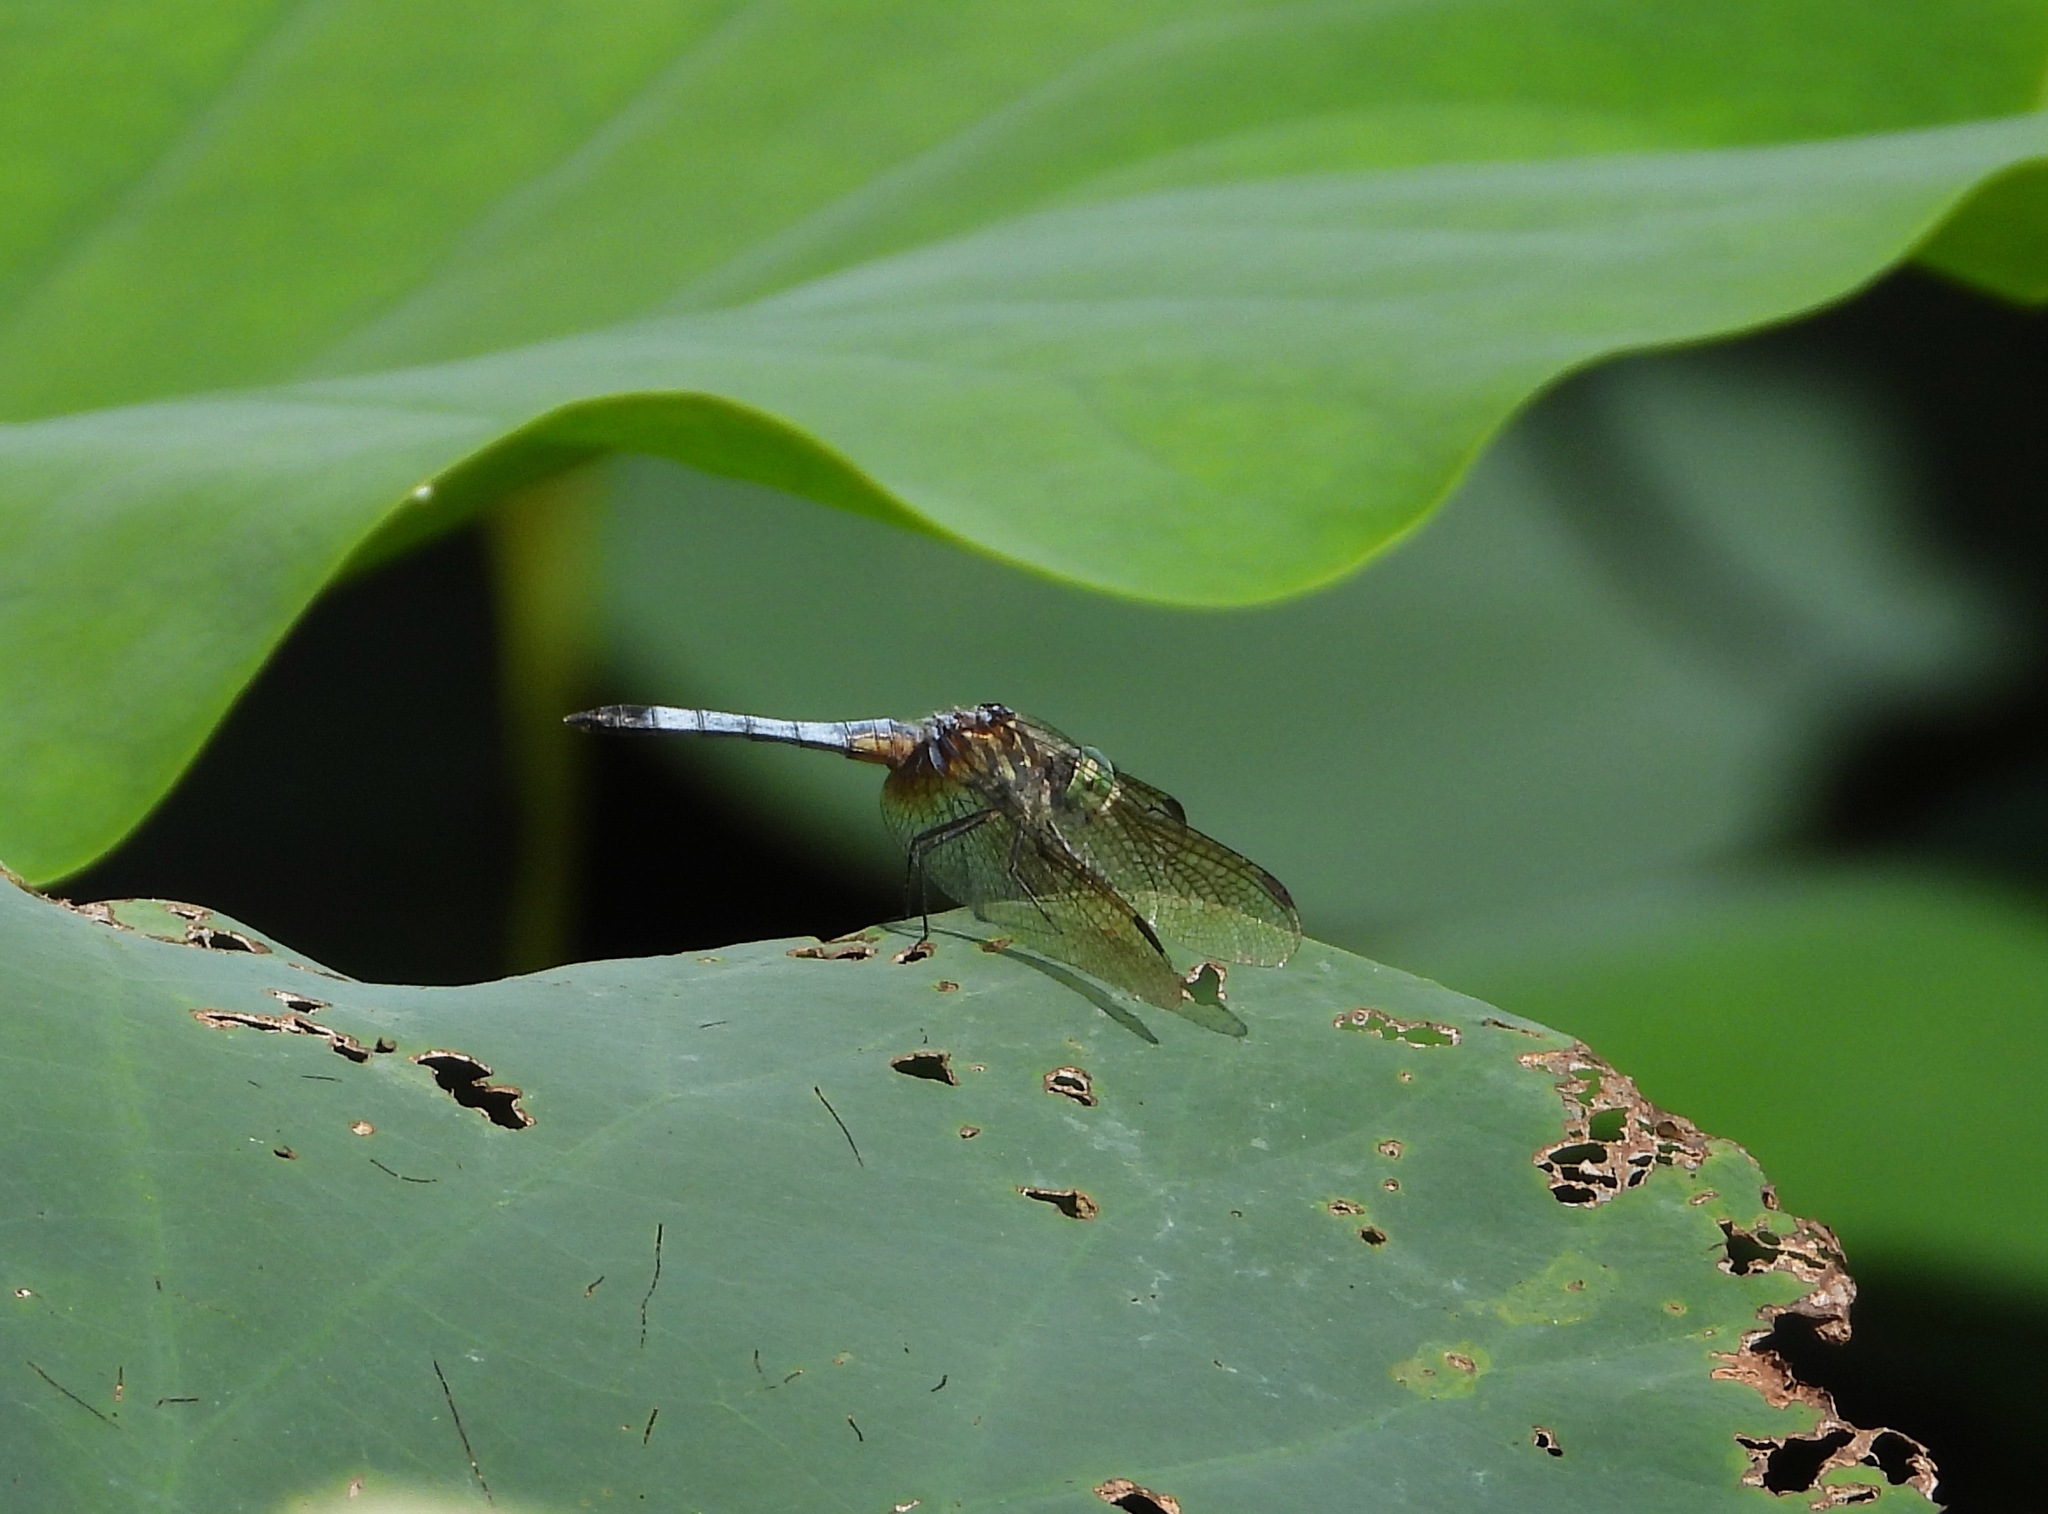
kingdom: Animalia
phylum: Arthropoda
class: Insecta
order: Odonata
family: Libellulidae
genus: Pachydiplax
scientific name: Pachydiplax longipennis
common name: Blue dasher
